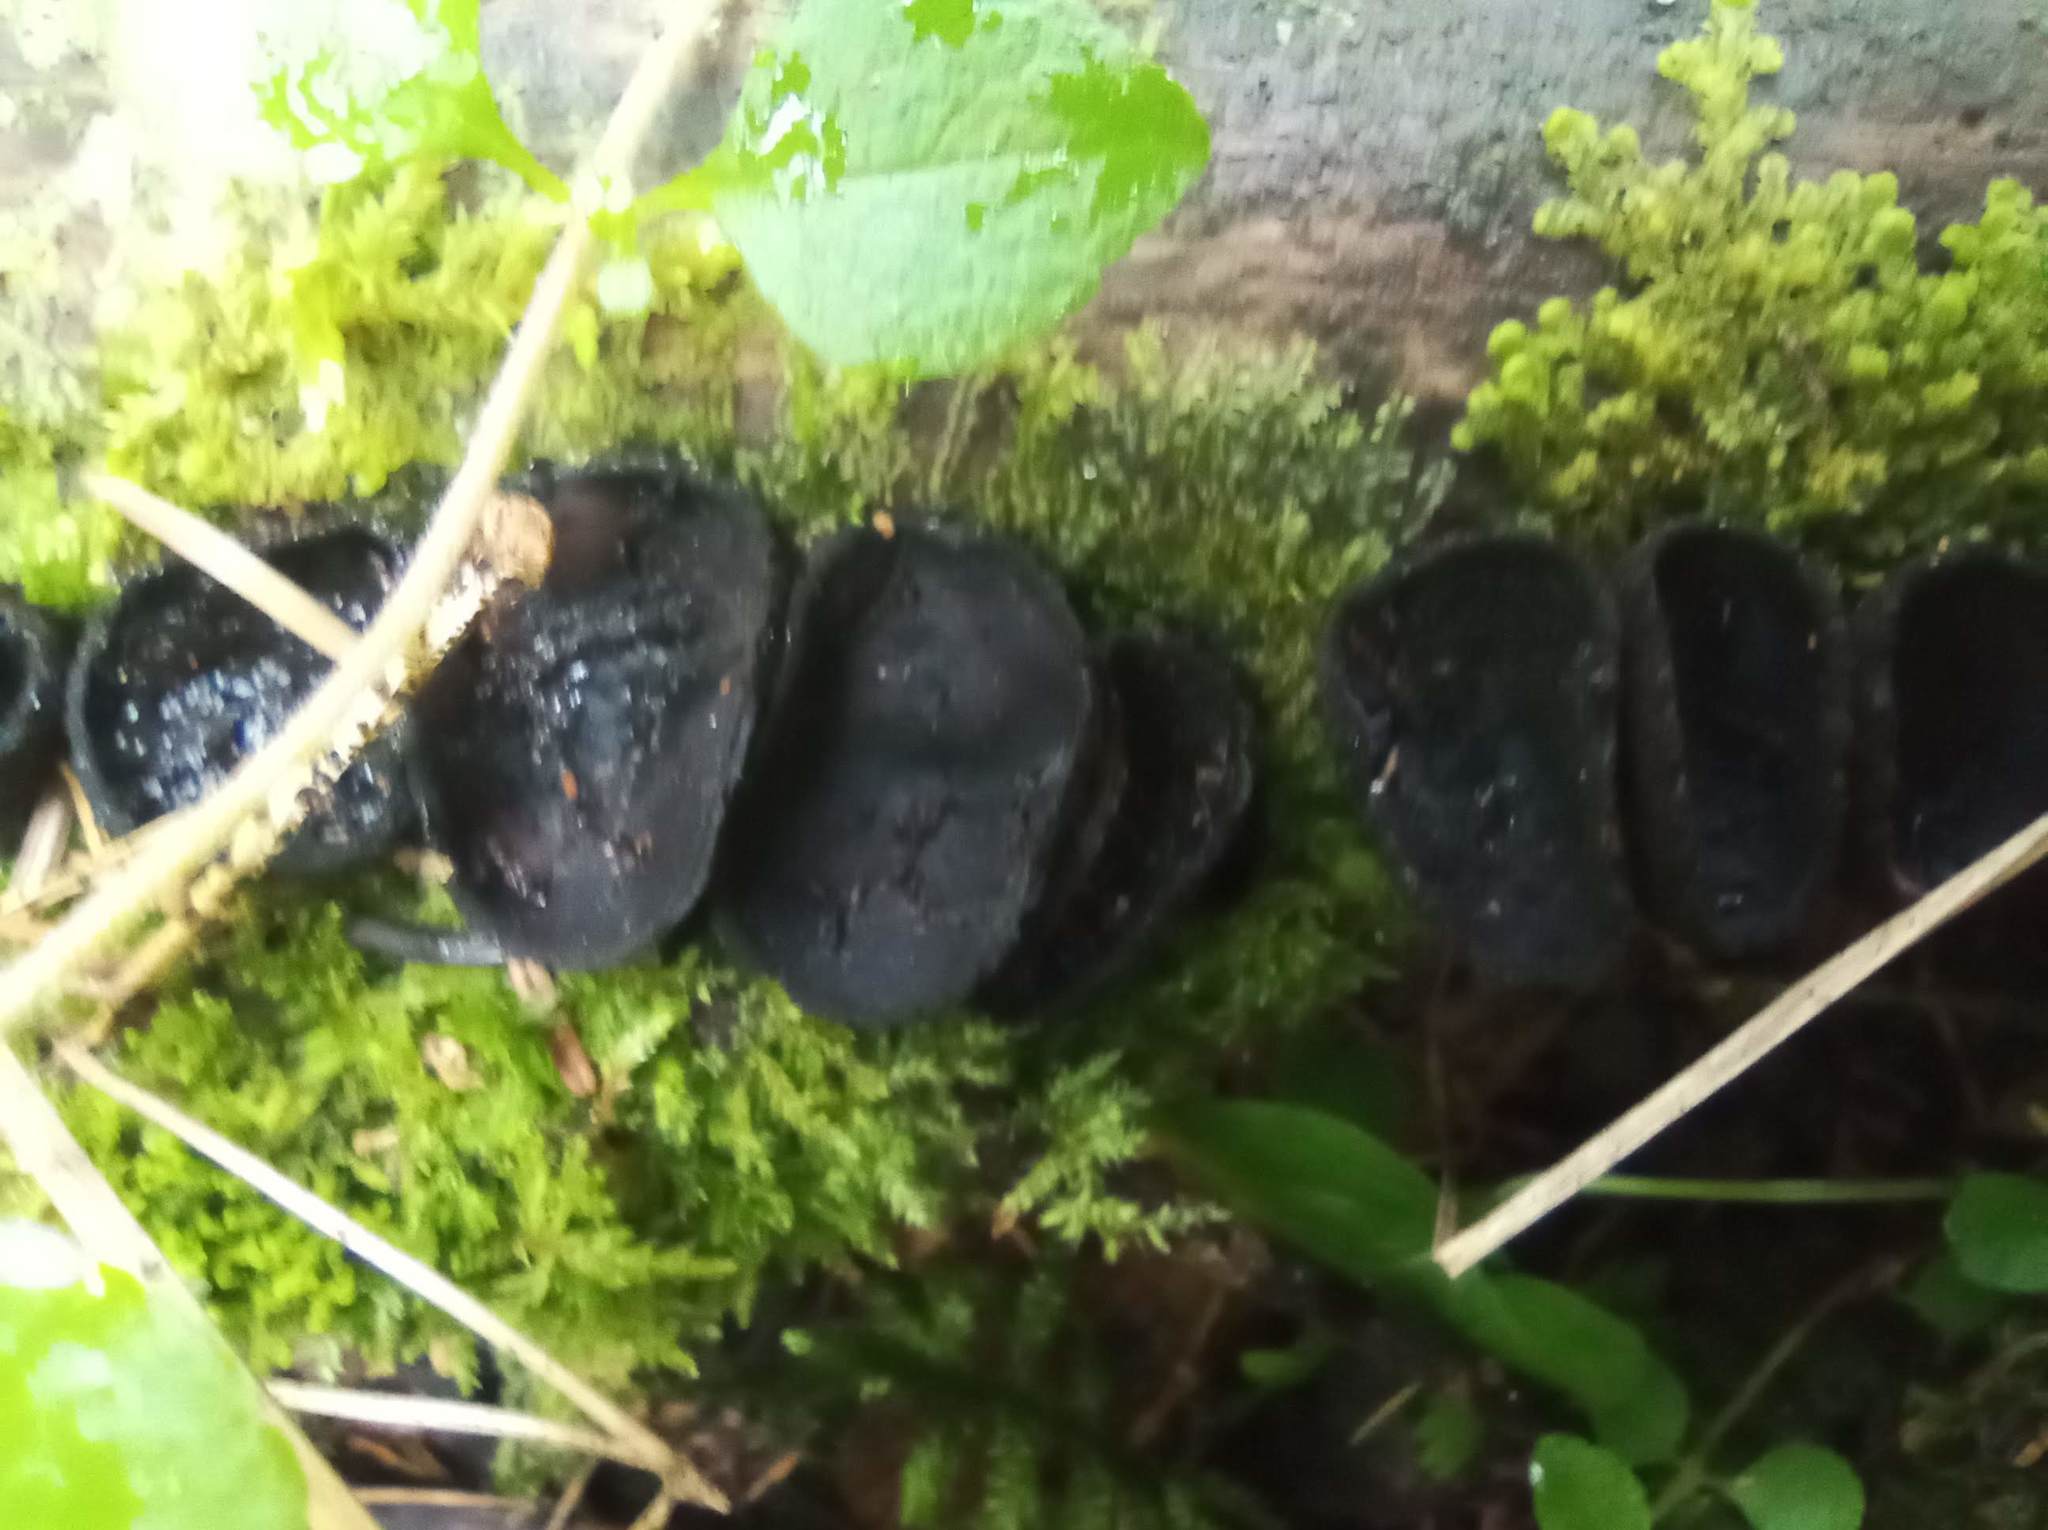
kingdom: Fungi
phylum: Ascomycota
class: Pezizomycetes
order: Pezizales
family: Sarcosomataceae
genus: Pseudoplectania
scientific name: Pseudoplectania nigrella
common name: Ebony cup
